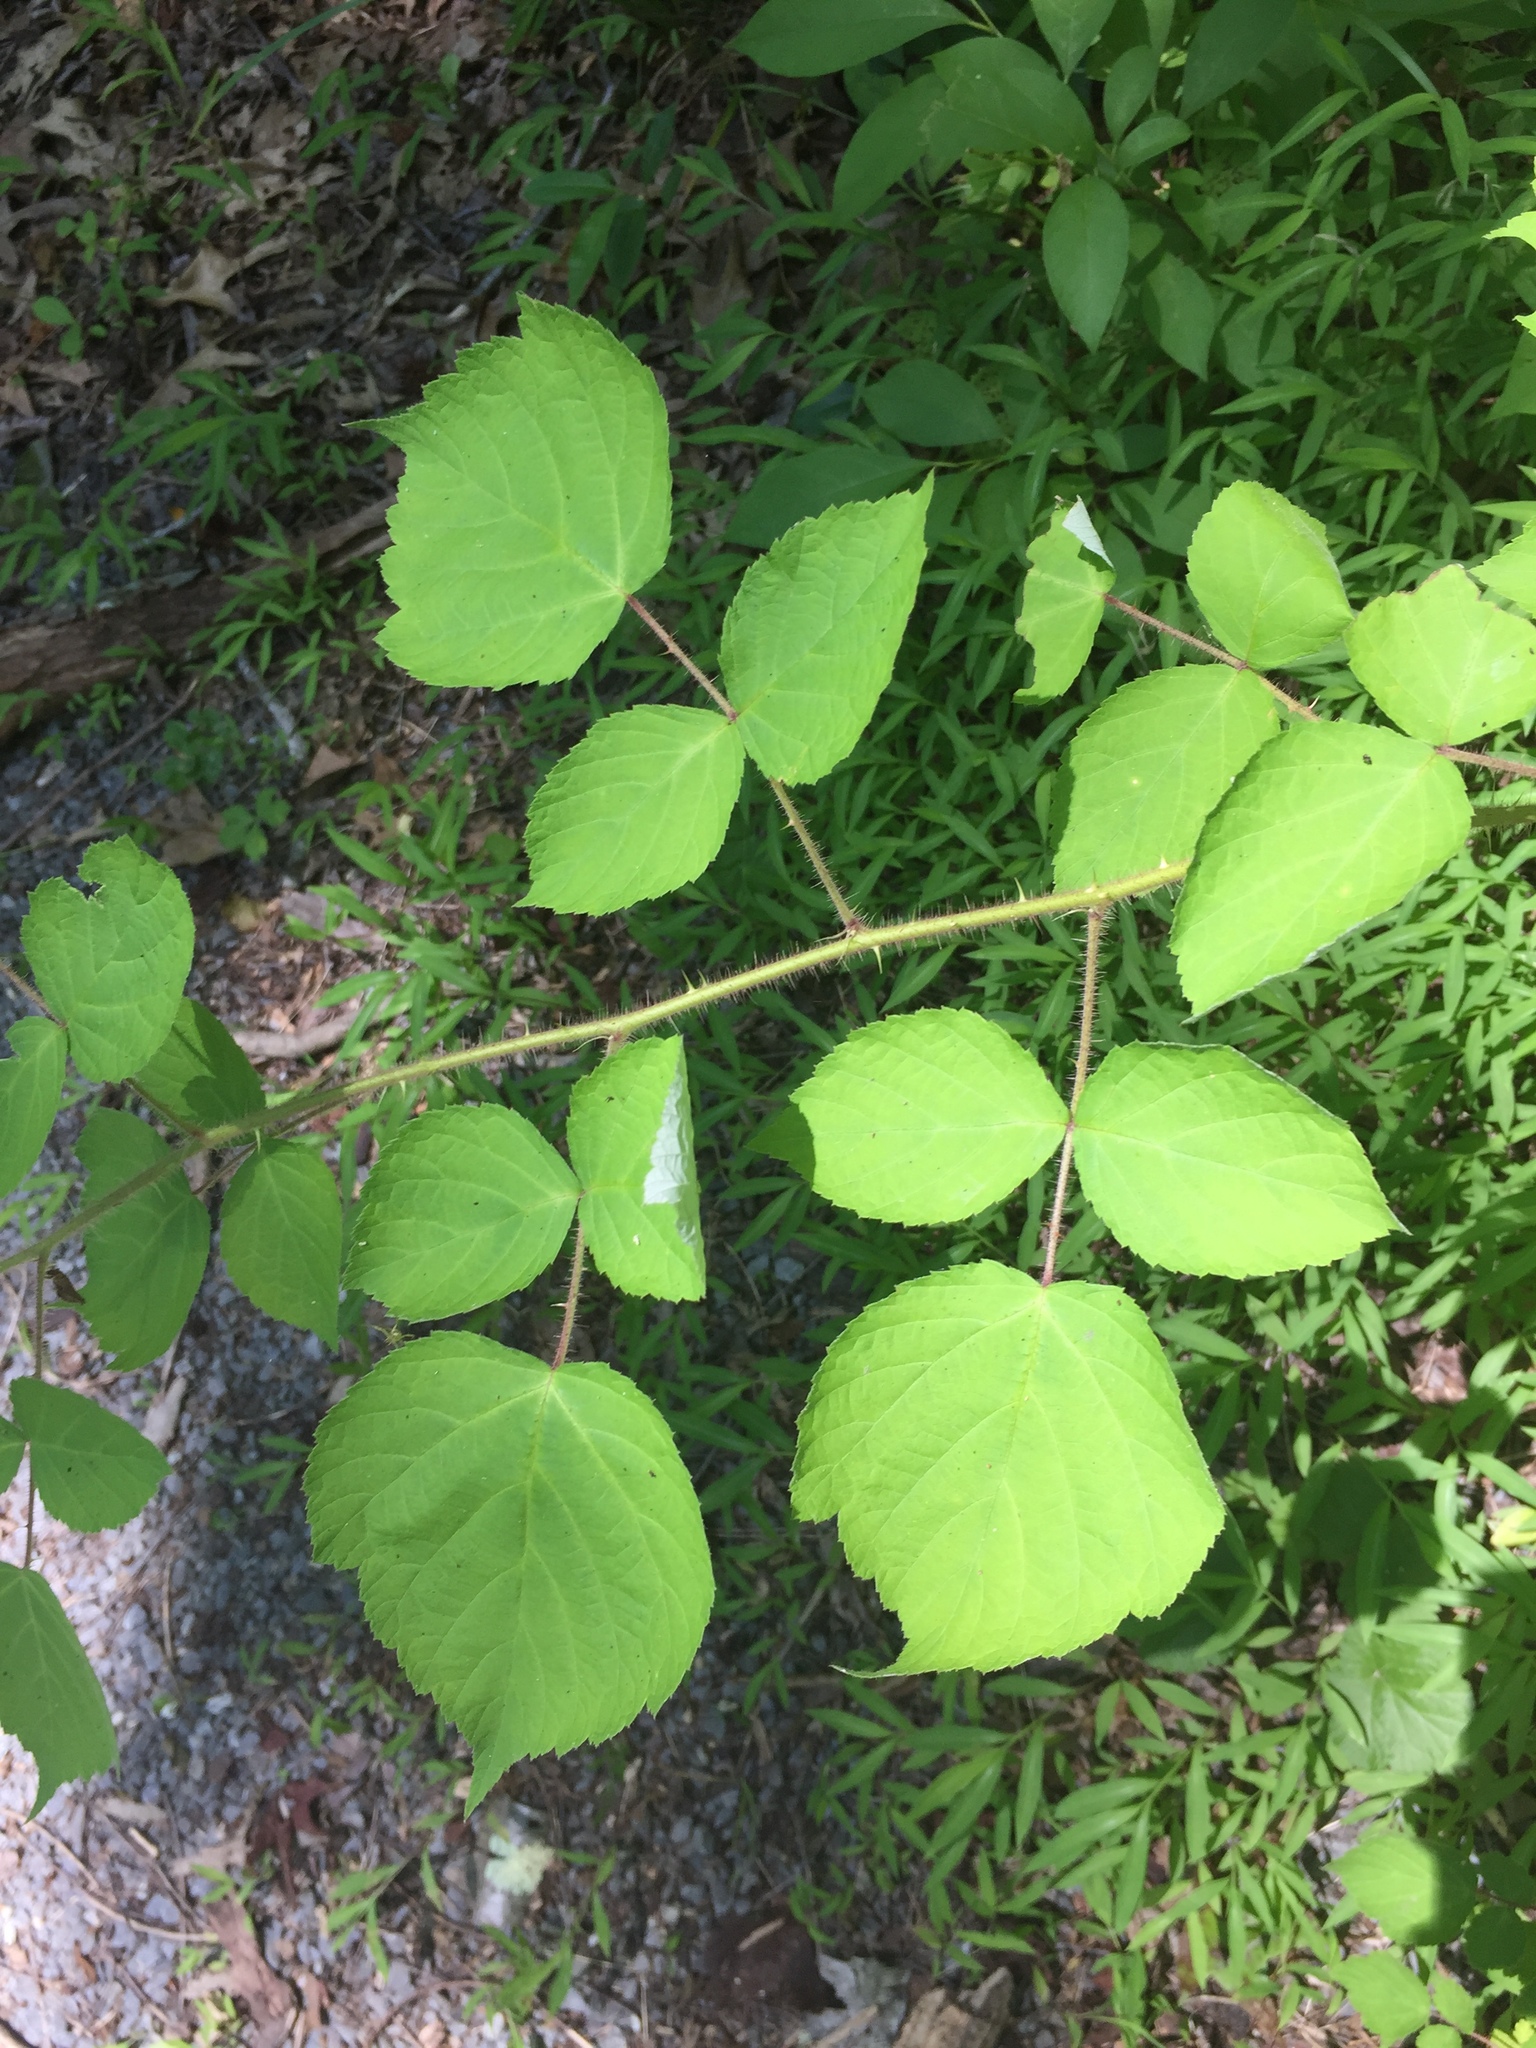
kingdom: Plantae
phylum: Tracheophyta
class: Magnoliopsida
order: Rosales
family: Rosaceae
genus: Rubus
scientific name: Rubus phoenicolasius
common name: Japanese wineberry
